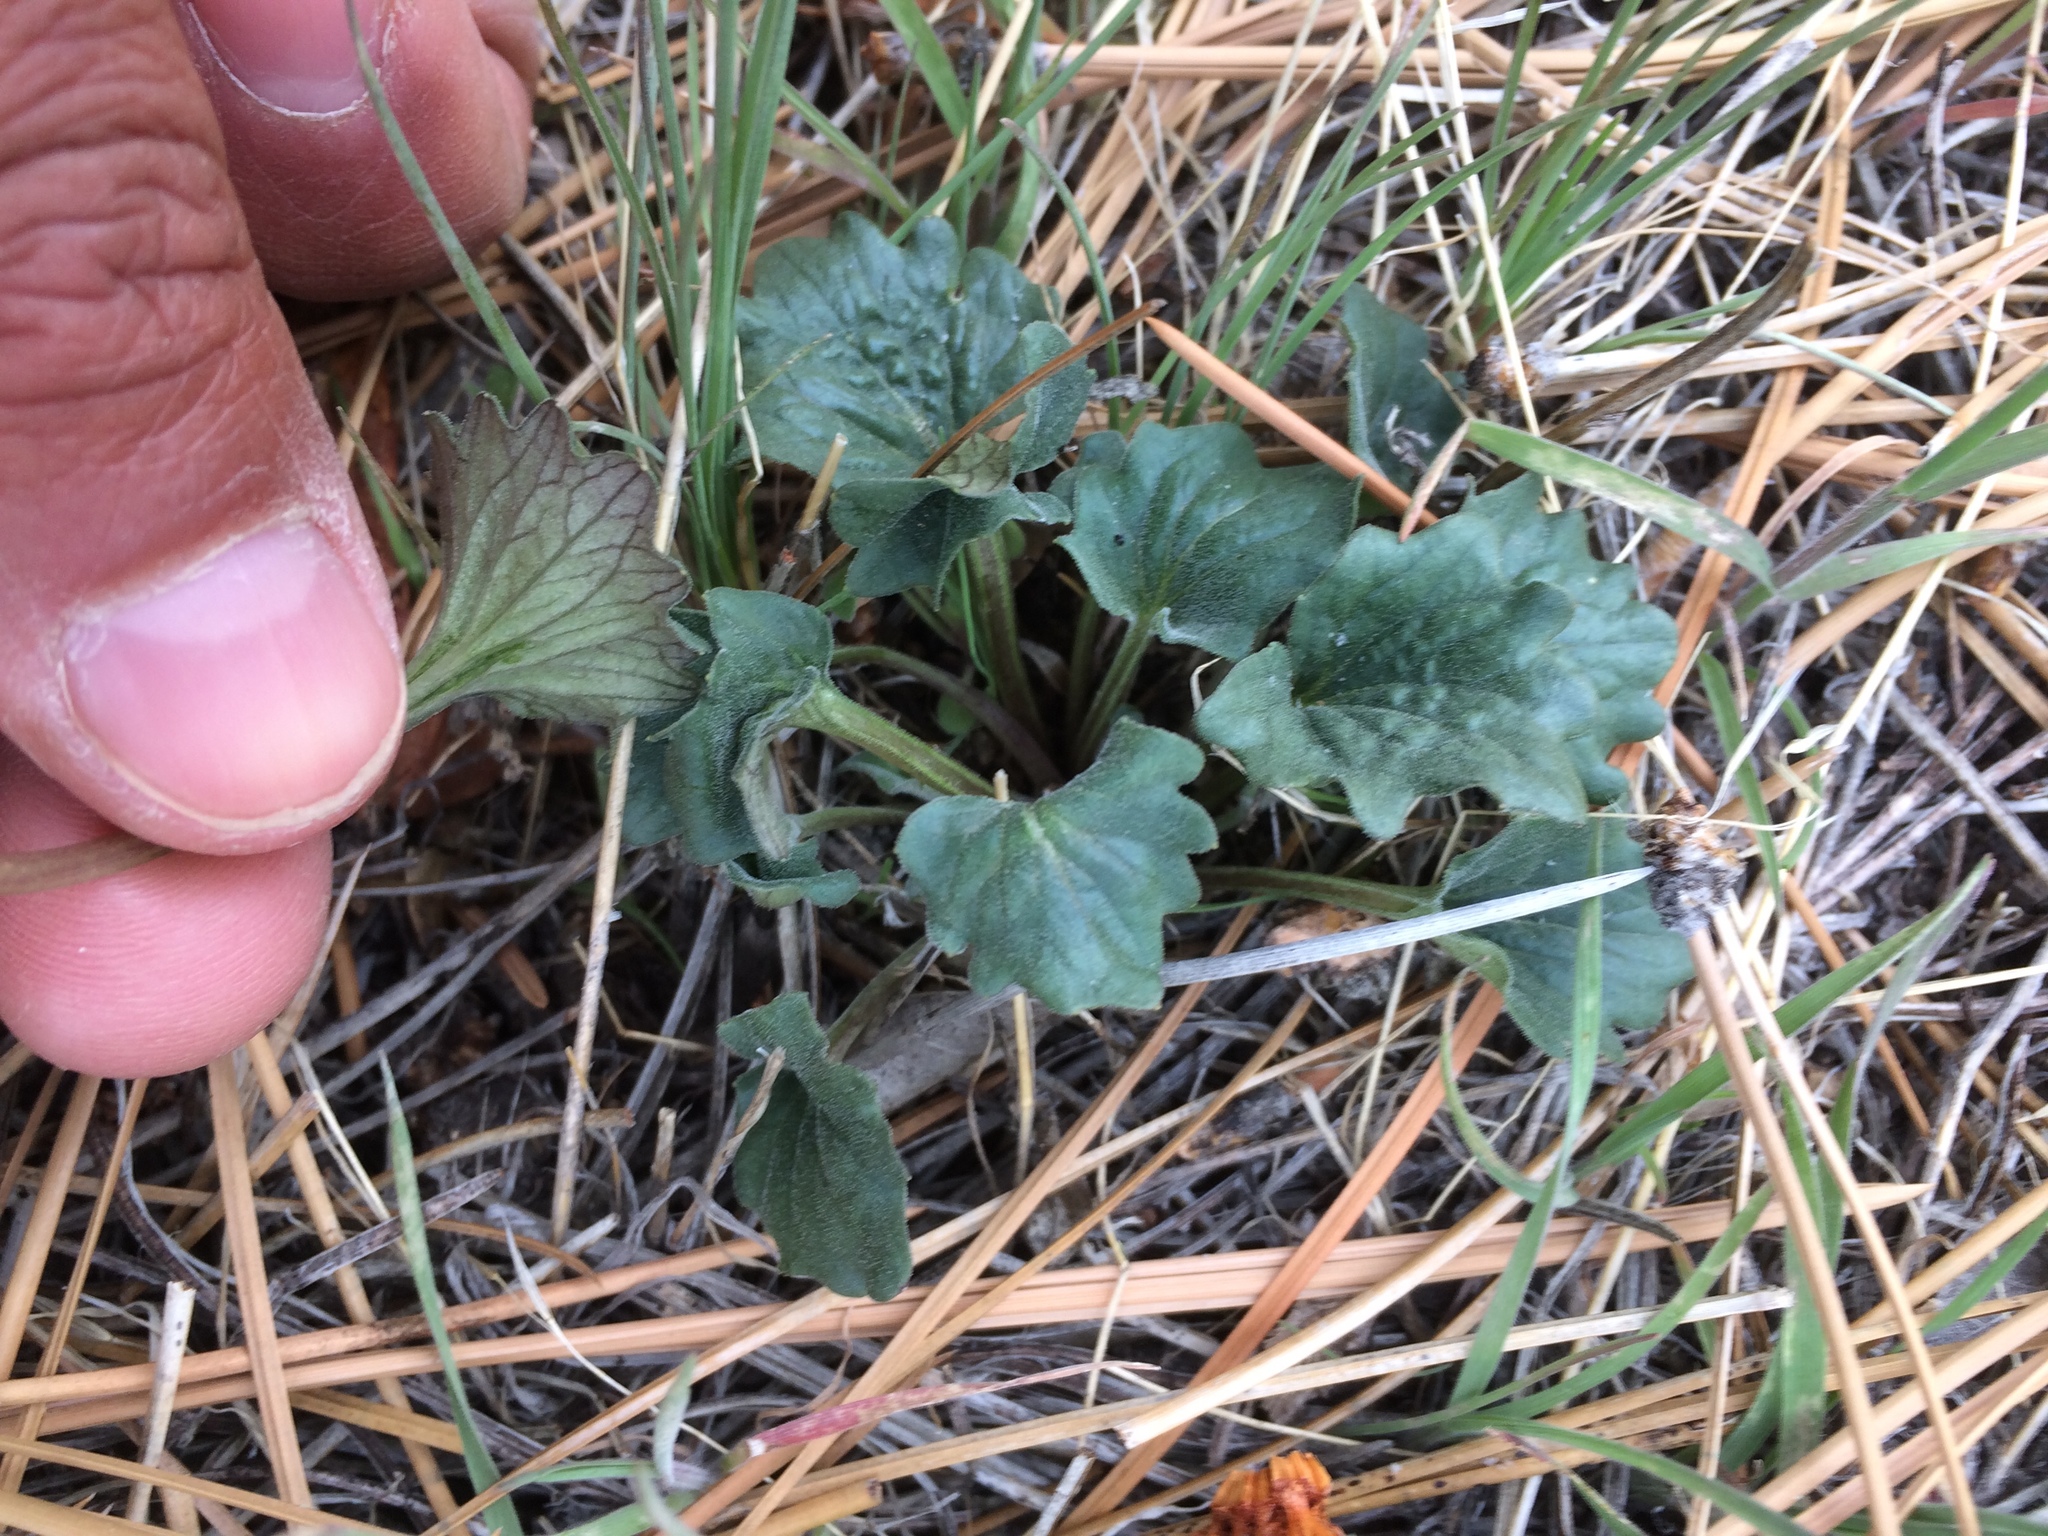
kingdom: Plantae
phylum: Tracheophyta
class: Magnoliopsida
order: Malpighiales
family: Violaceae
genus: Viola
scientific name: Viola purpurea
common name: Pine violet
